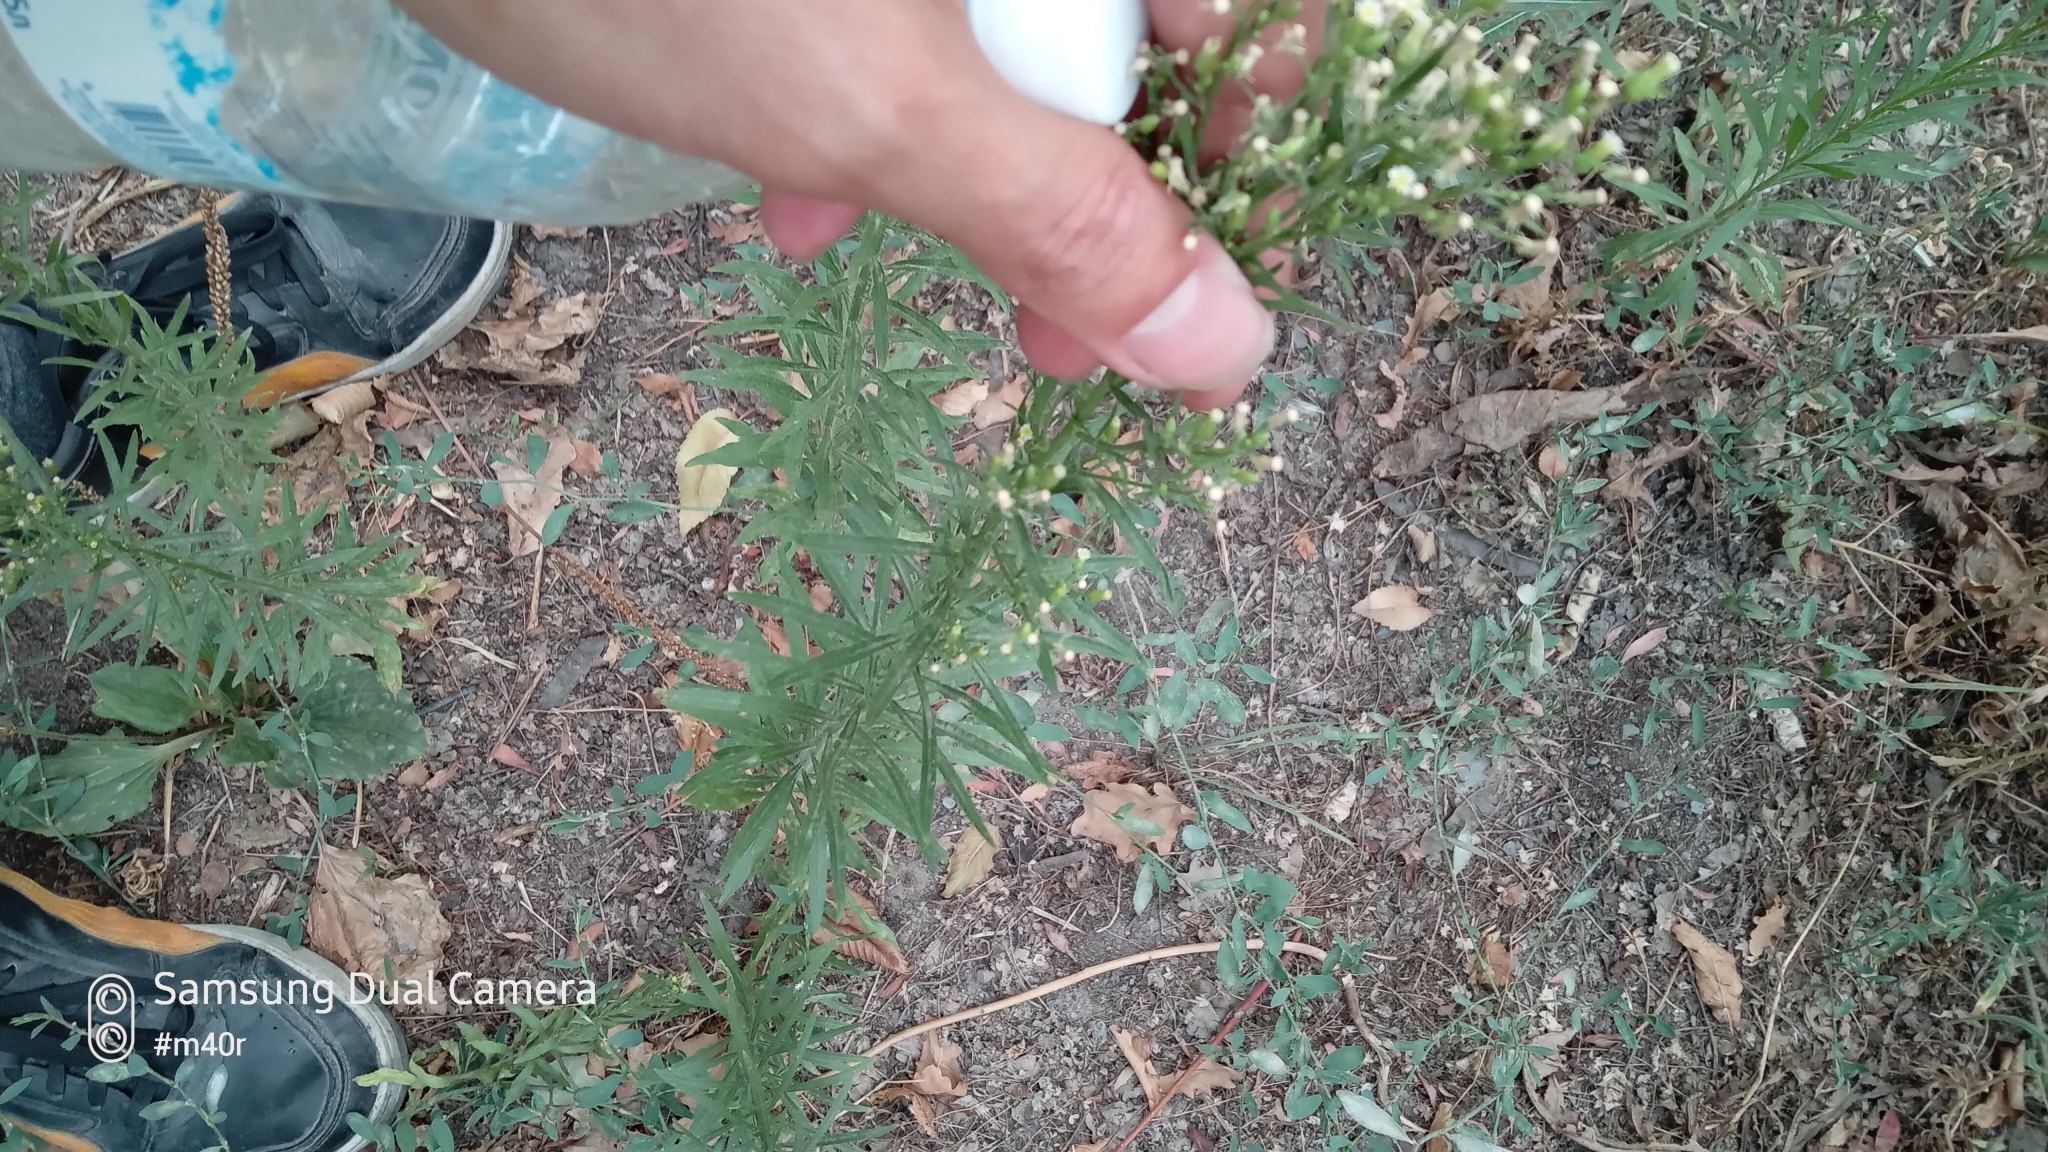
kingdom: Plantae
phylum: Tracheophyta
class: Magnoliopsida
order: Asterales
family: Asteraceae
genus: Erigeron
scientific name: Erigeron canadensis
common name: Canadian fleabane
